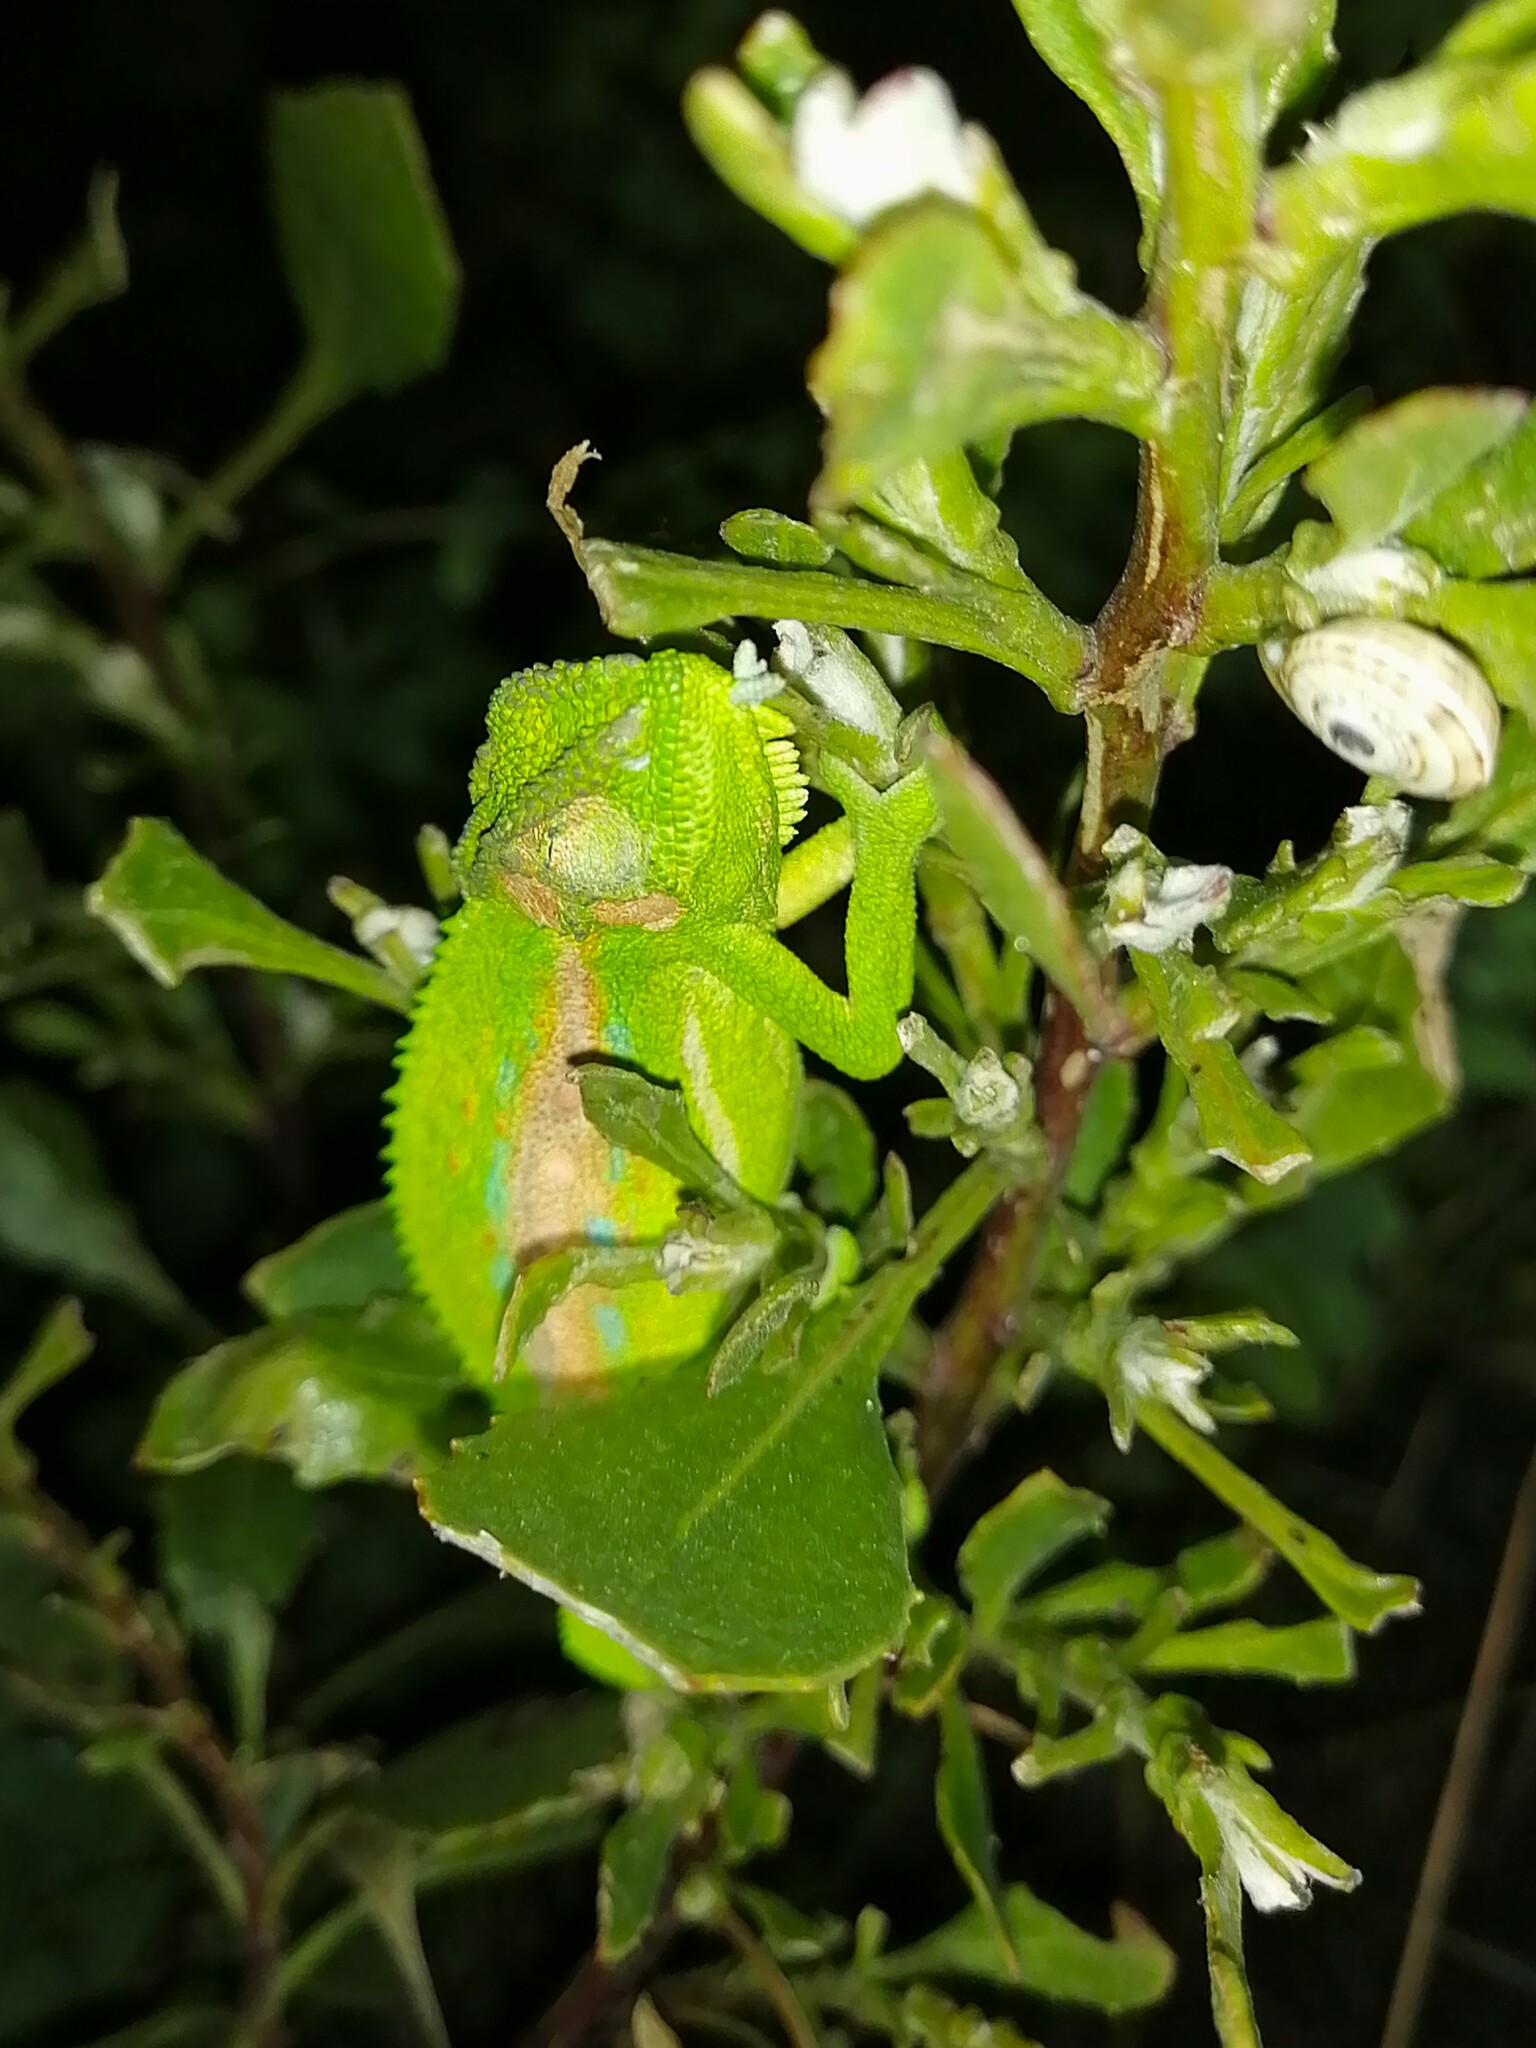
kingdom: Animalia
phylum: Chordata
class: Squamata
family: Chamaeleonidae
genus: Bradypodion
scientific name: Bradypodion pumilum
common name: Cape dwarf chameleon
